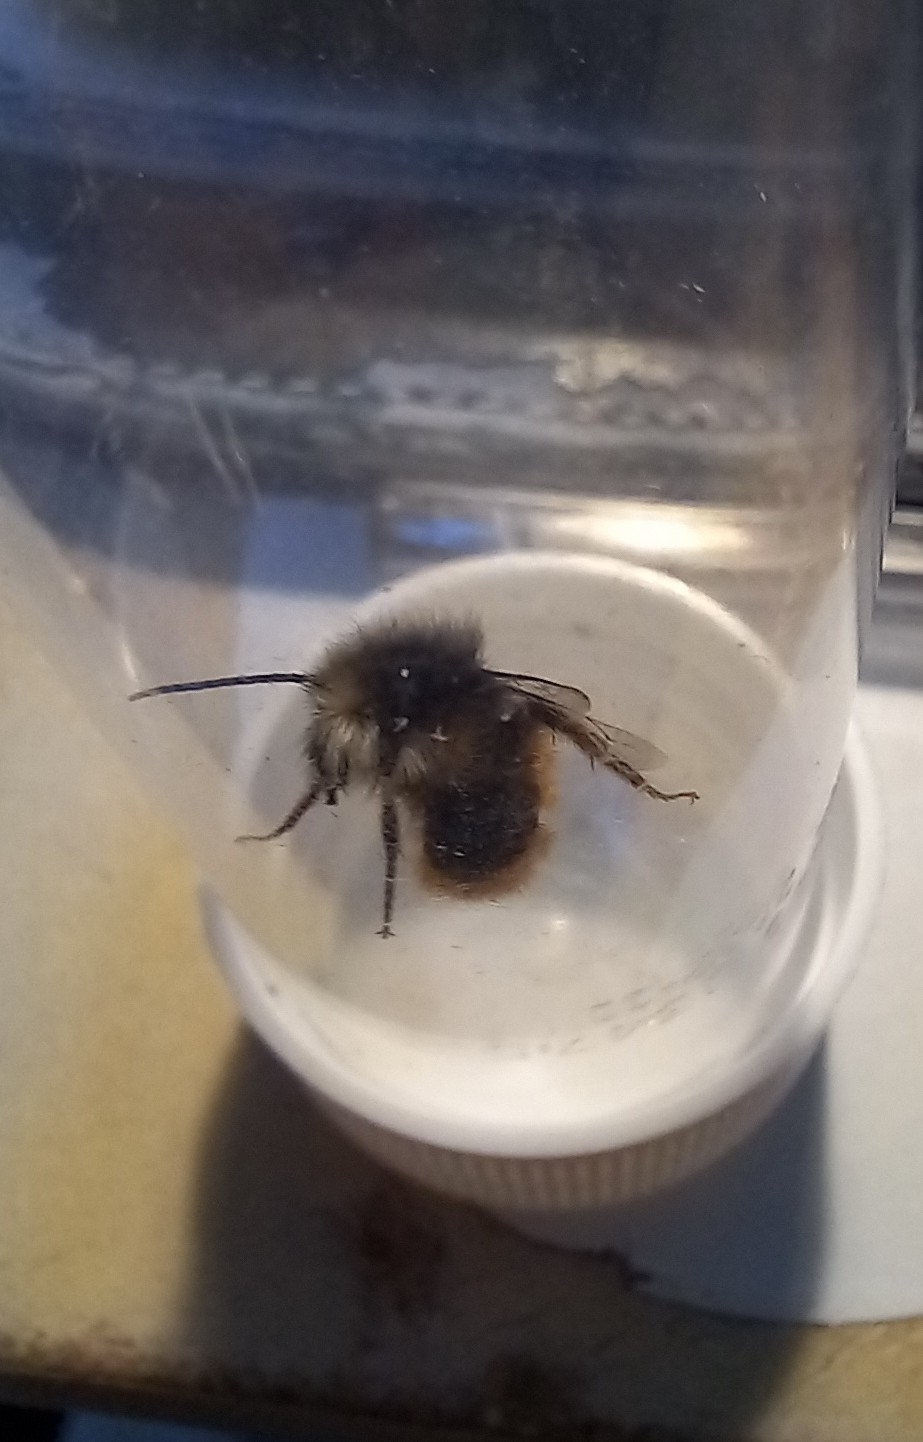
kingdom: Animalia
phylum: Arthropoda
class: Insecta
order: Hymenoptera
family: Megachilidae
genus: Osmia
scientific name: Osmia cornuta
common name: Mason bee
